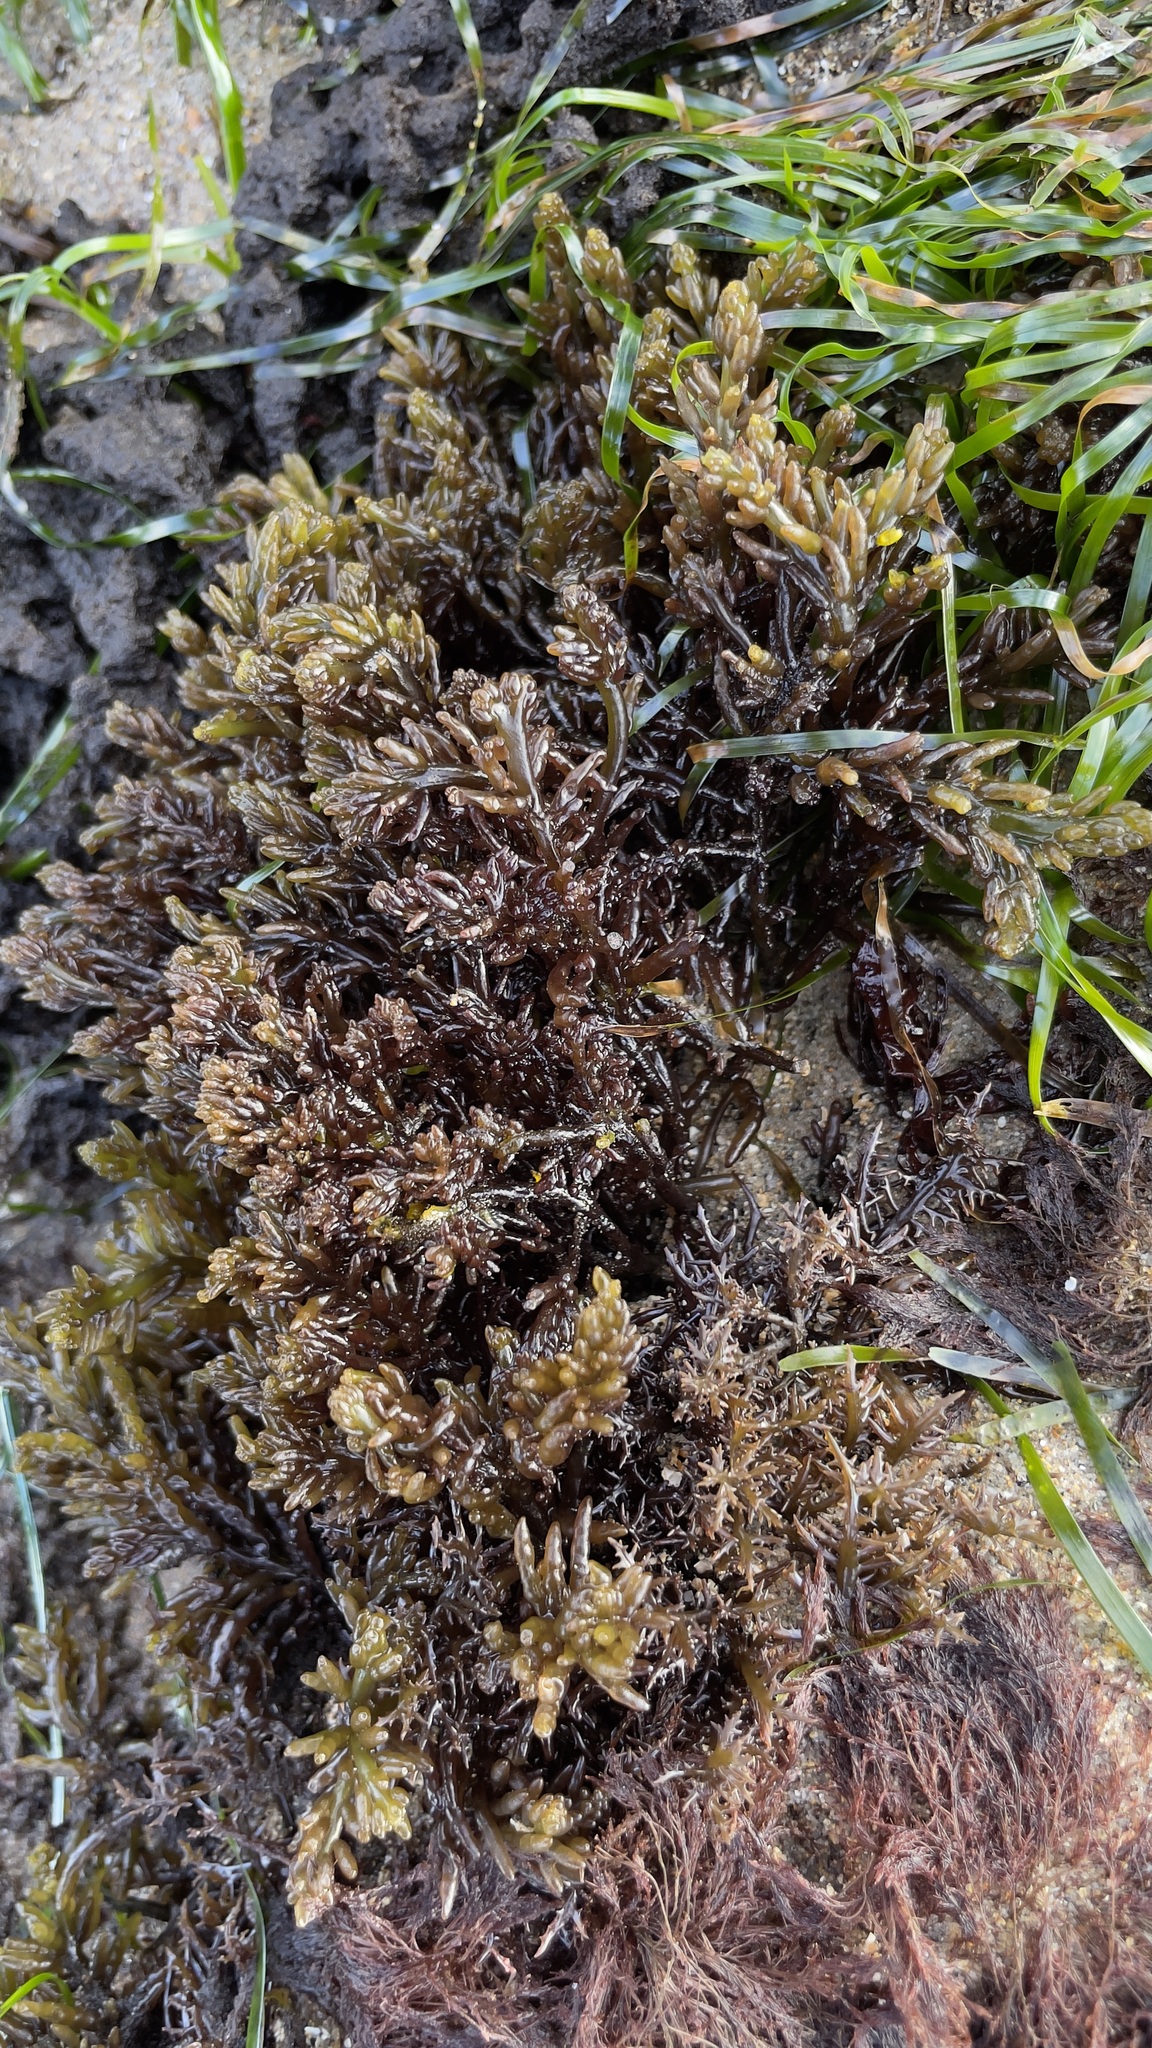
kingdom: Plantae
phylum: Rhodophyta
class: Florideophyceae
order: Rhodymeniales
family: Champiaceae
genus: Neogastroclonium
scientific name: Neogastroclonium subarticulatum
